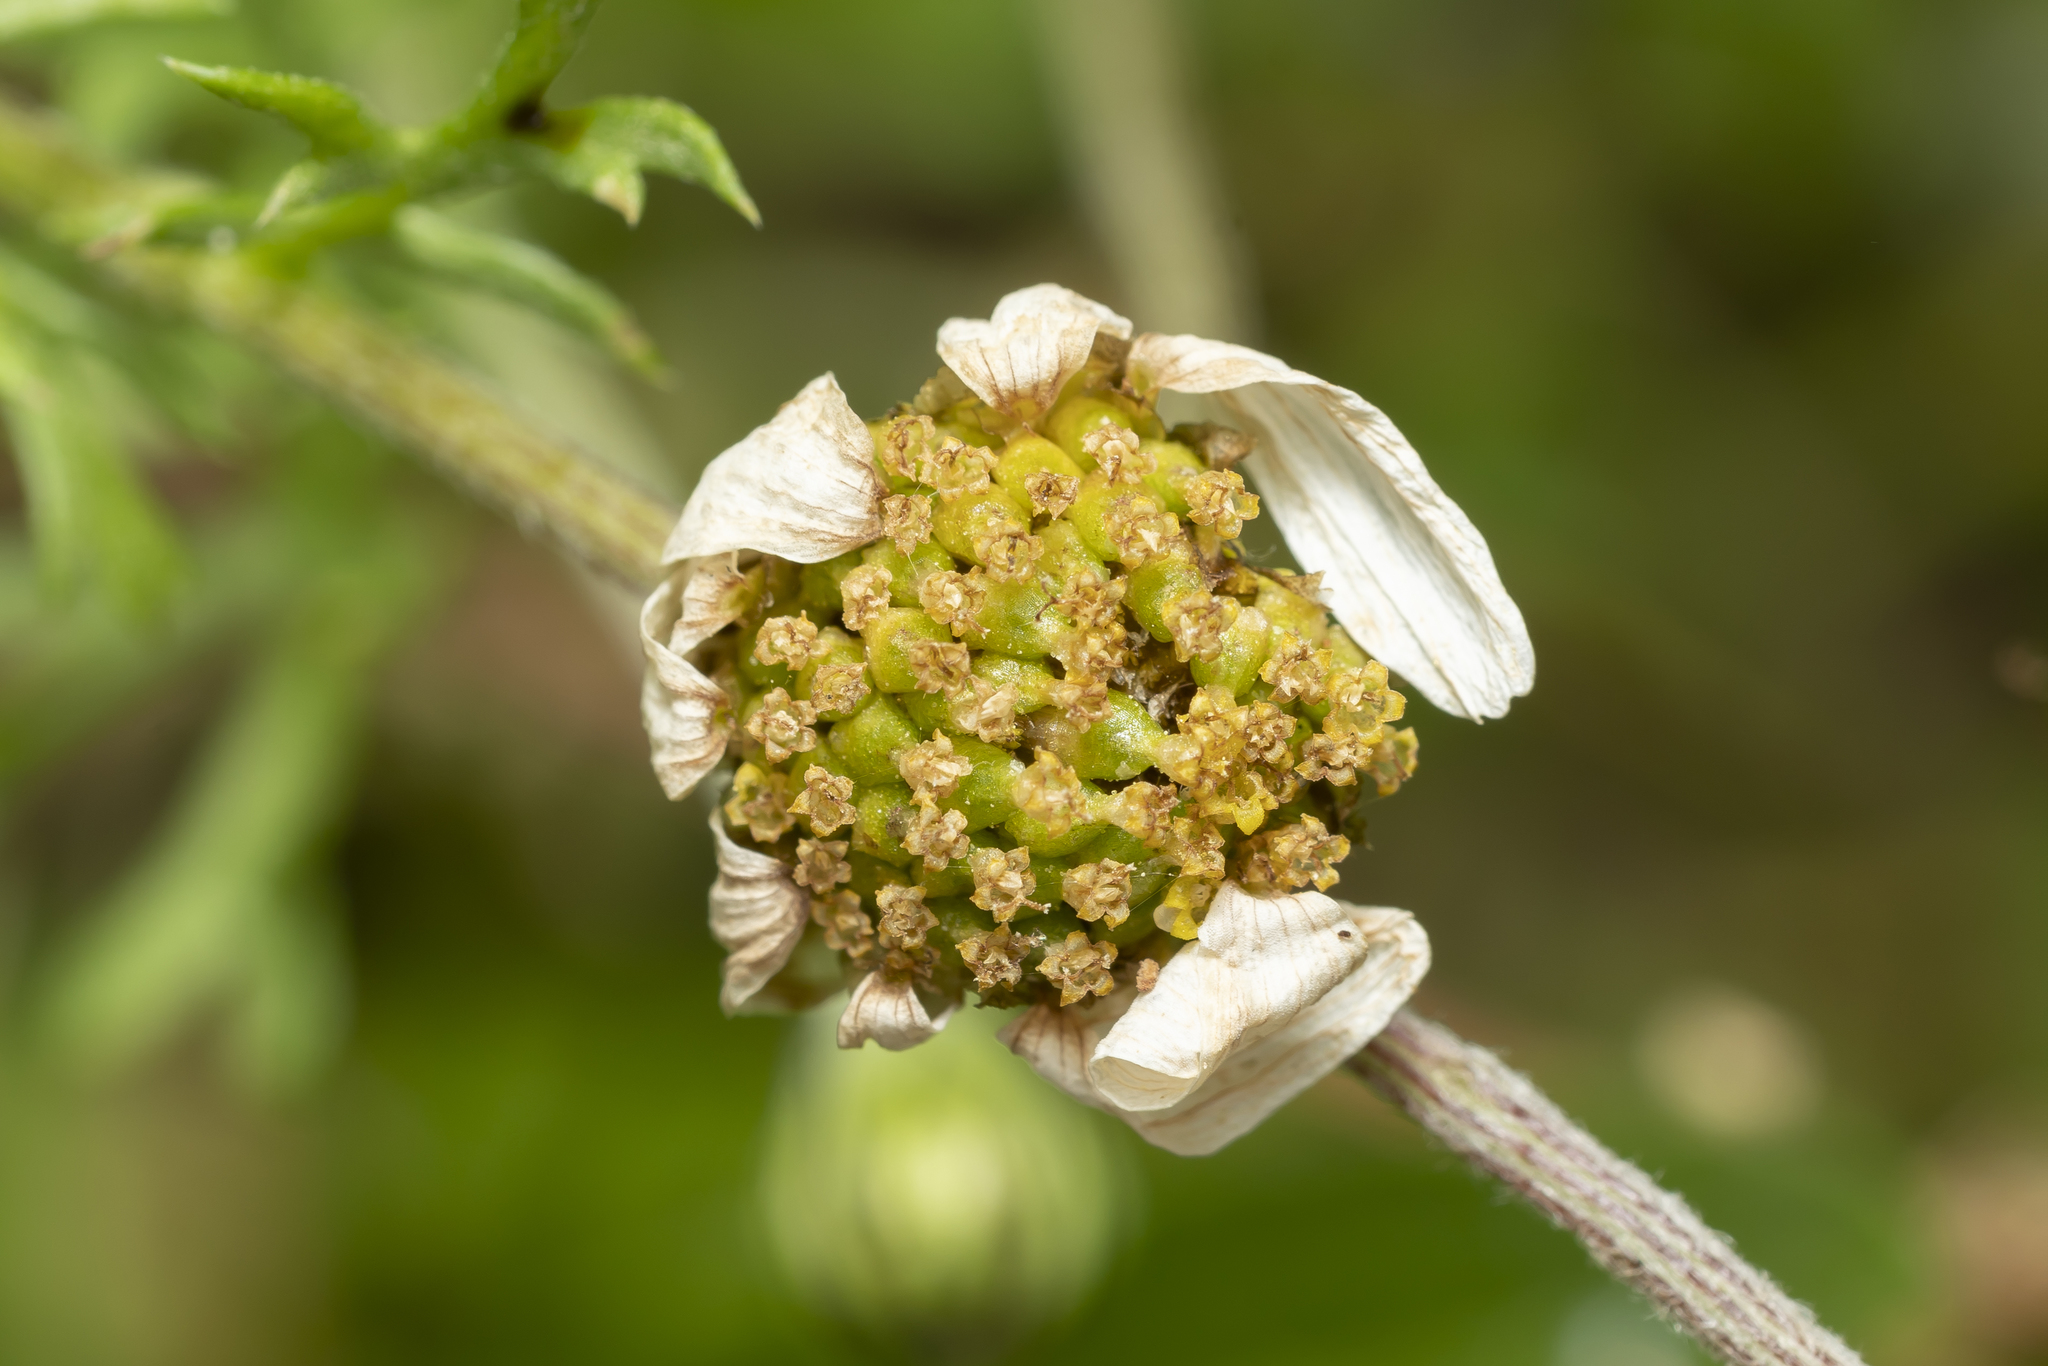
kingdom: Plantae
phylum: Tracheophyta
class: Magnoliopsida
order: Asterales
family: Asteraceae
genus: Anthemis
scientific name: Anthemis chia
